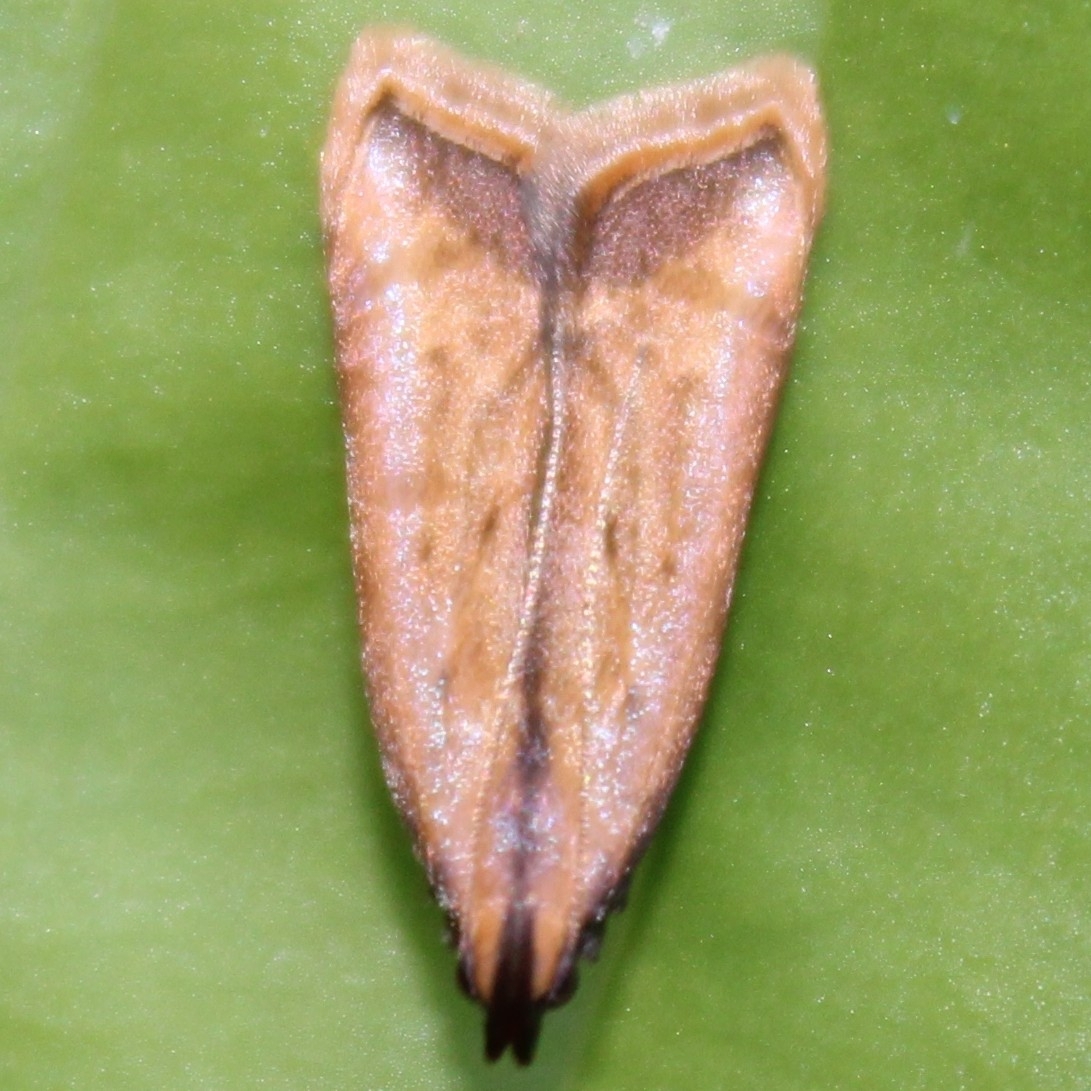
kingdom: Animalia
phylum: Arthropoda
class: Insecta
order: Lepidoptera
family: Gelechiidae
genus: Dichomeris
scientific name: Dichomeris heriguronis
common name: Black-edged dichomeris moth
